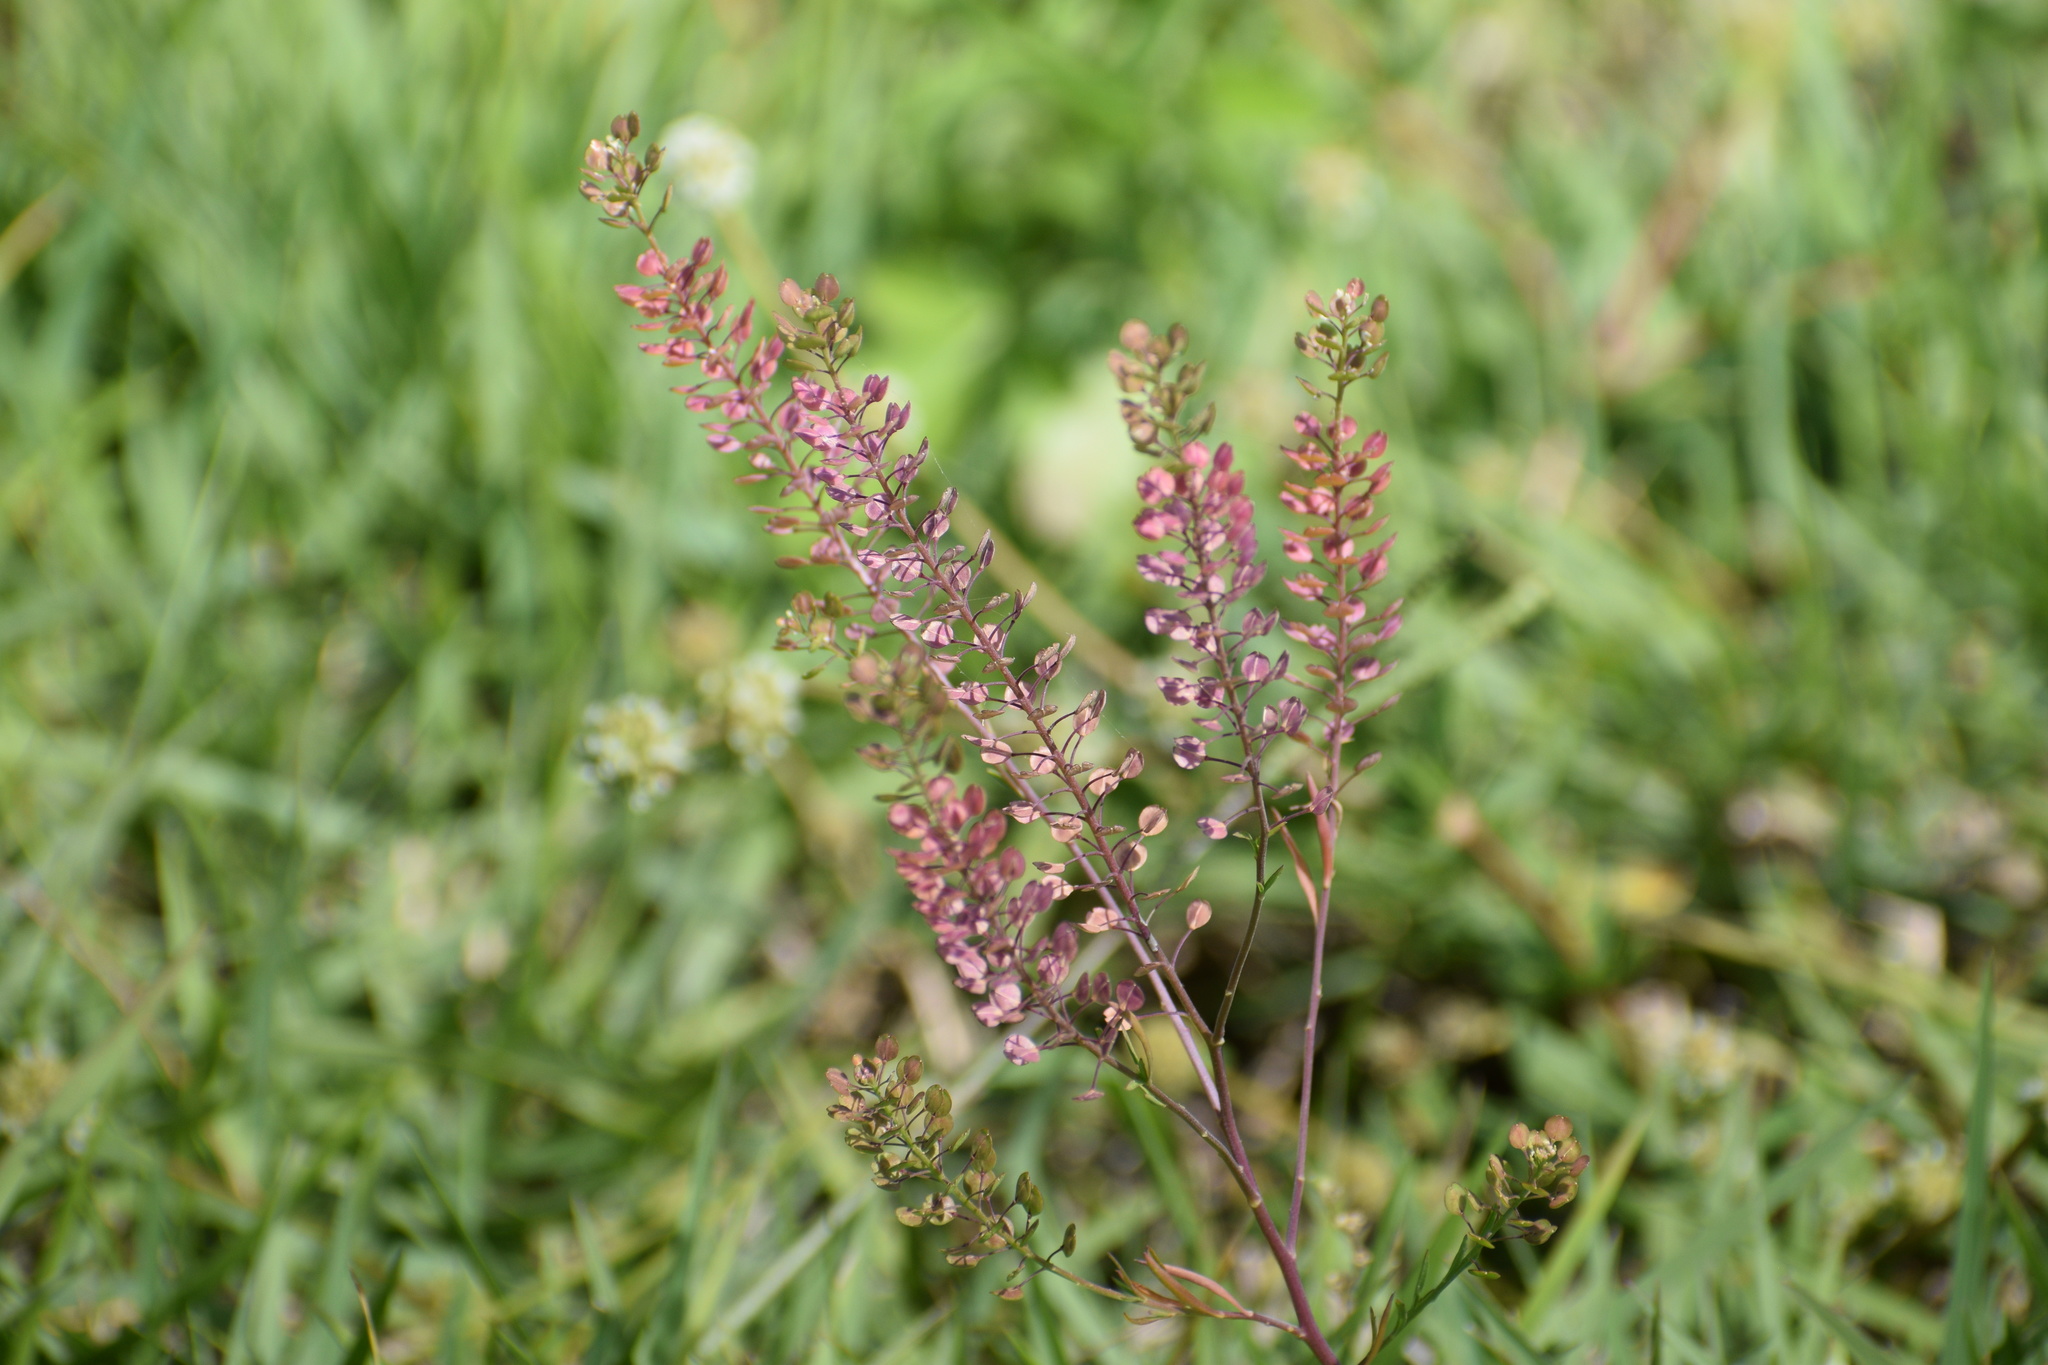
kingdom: Plantae
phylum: Tracheophyta
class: Magnoliopsida
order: Brassicales
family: Brassicaceae
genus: Lepidium
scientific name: Lepidium virginicum
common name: Least pepperwort
